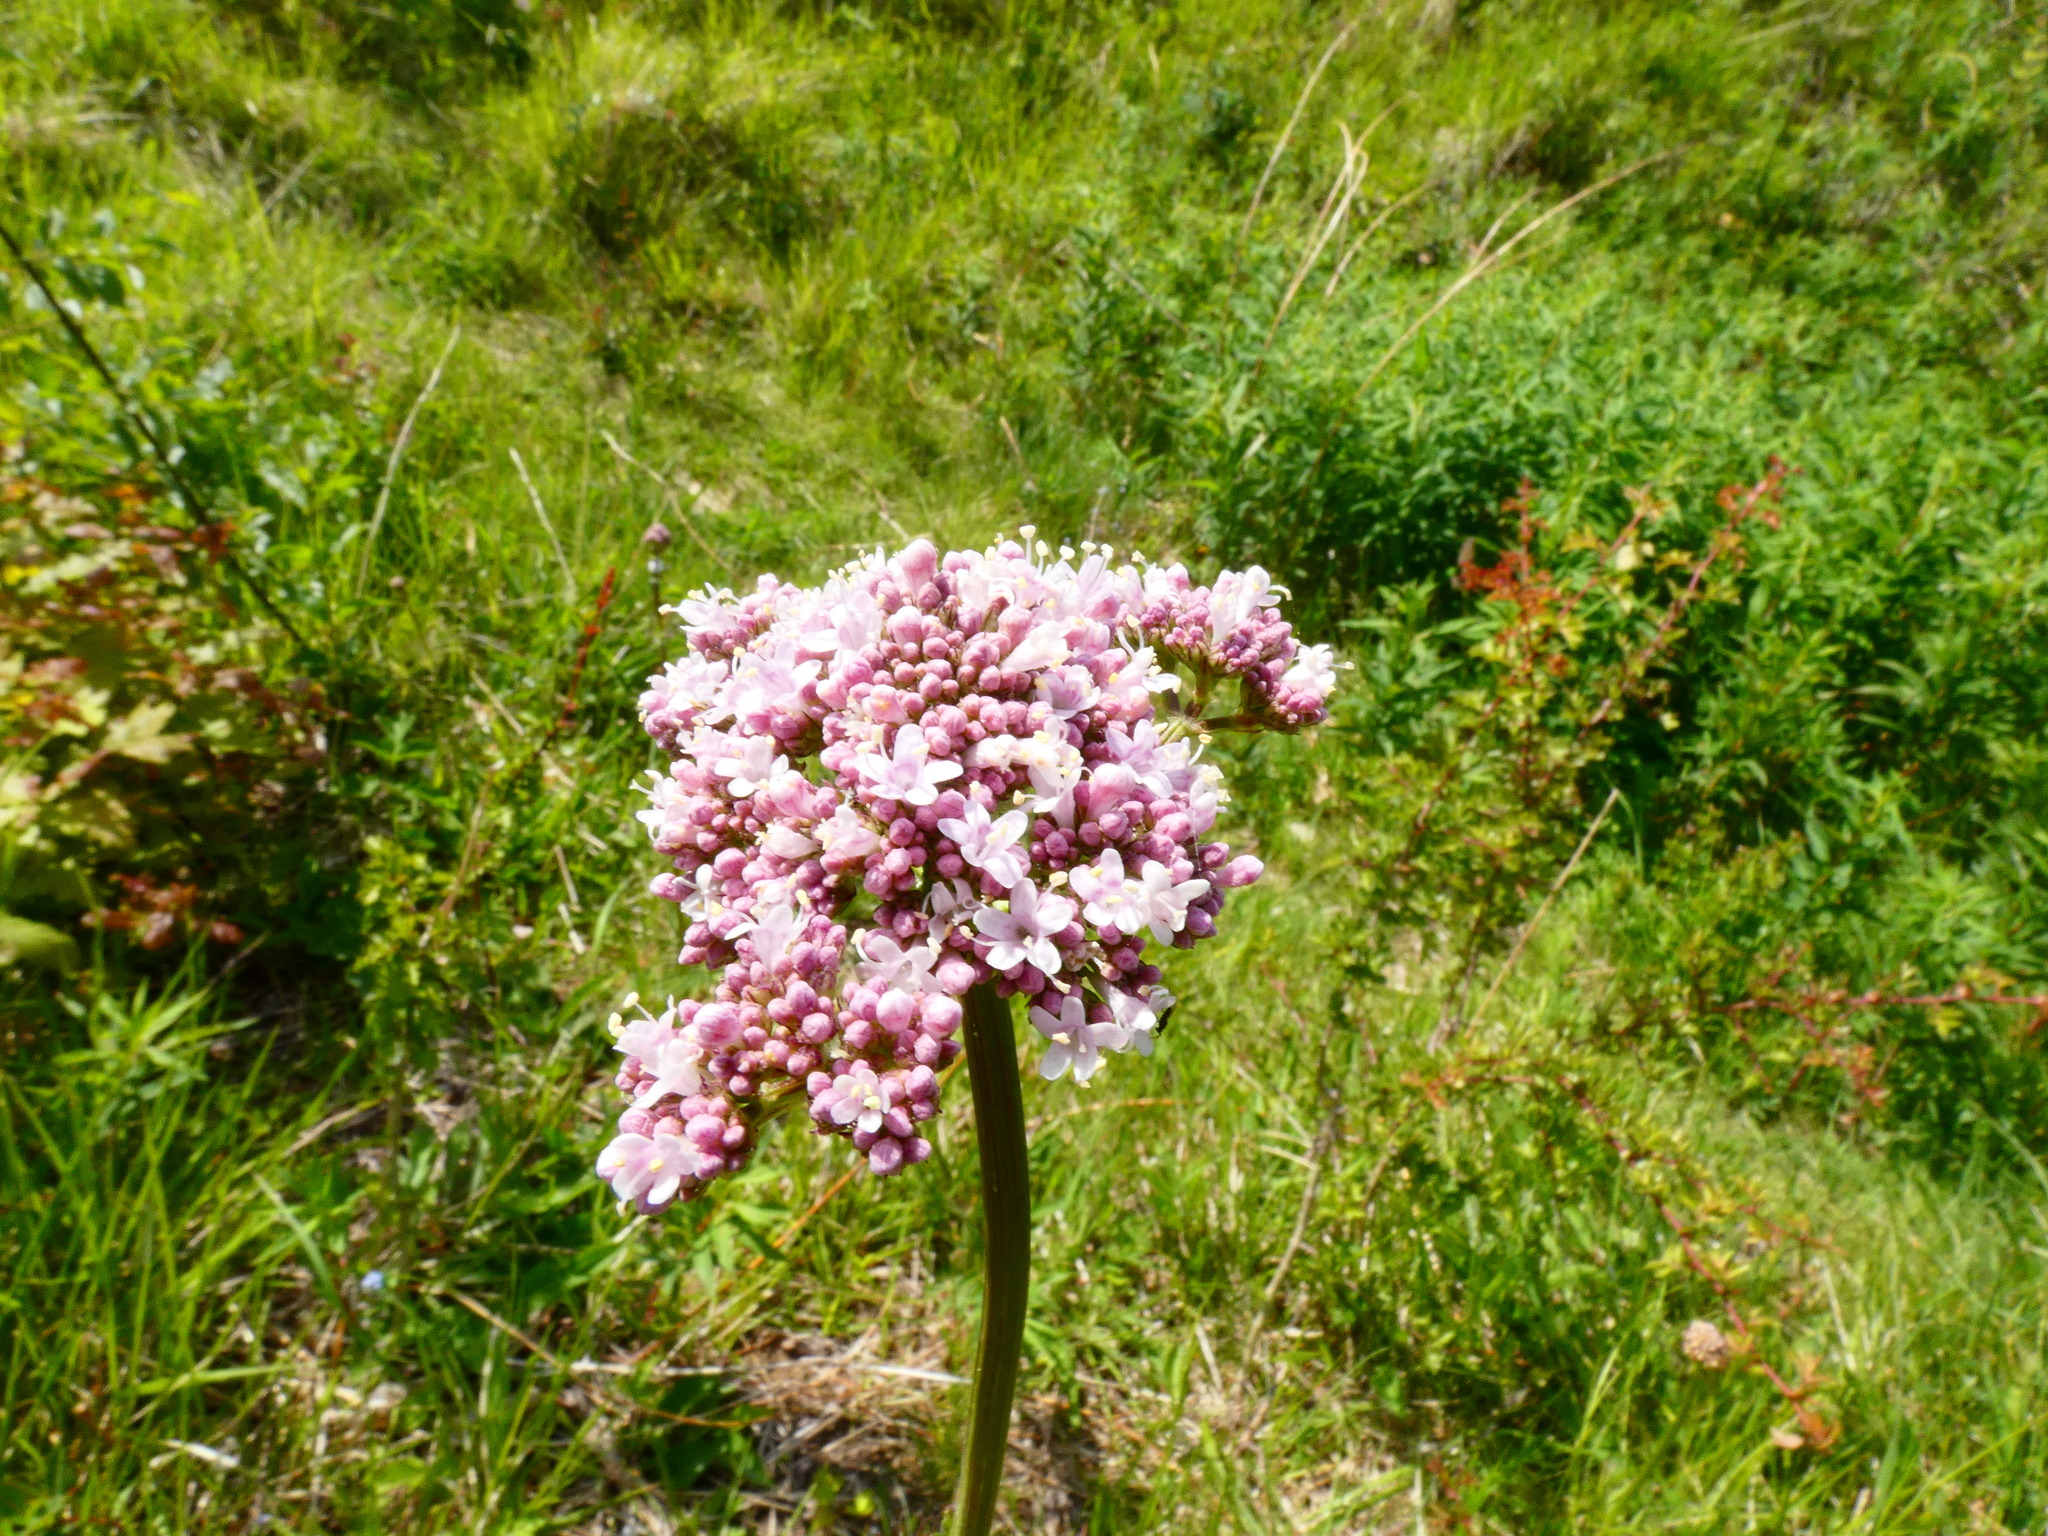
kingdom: Plantae
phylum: Tracheophyta
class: Magnoliopsida
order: Dipsacales
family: Caprifoliaceae
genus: Valeriana
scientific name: Valeriana officinalis
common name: Common valerian
